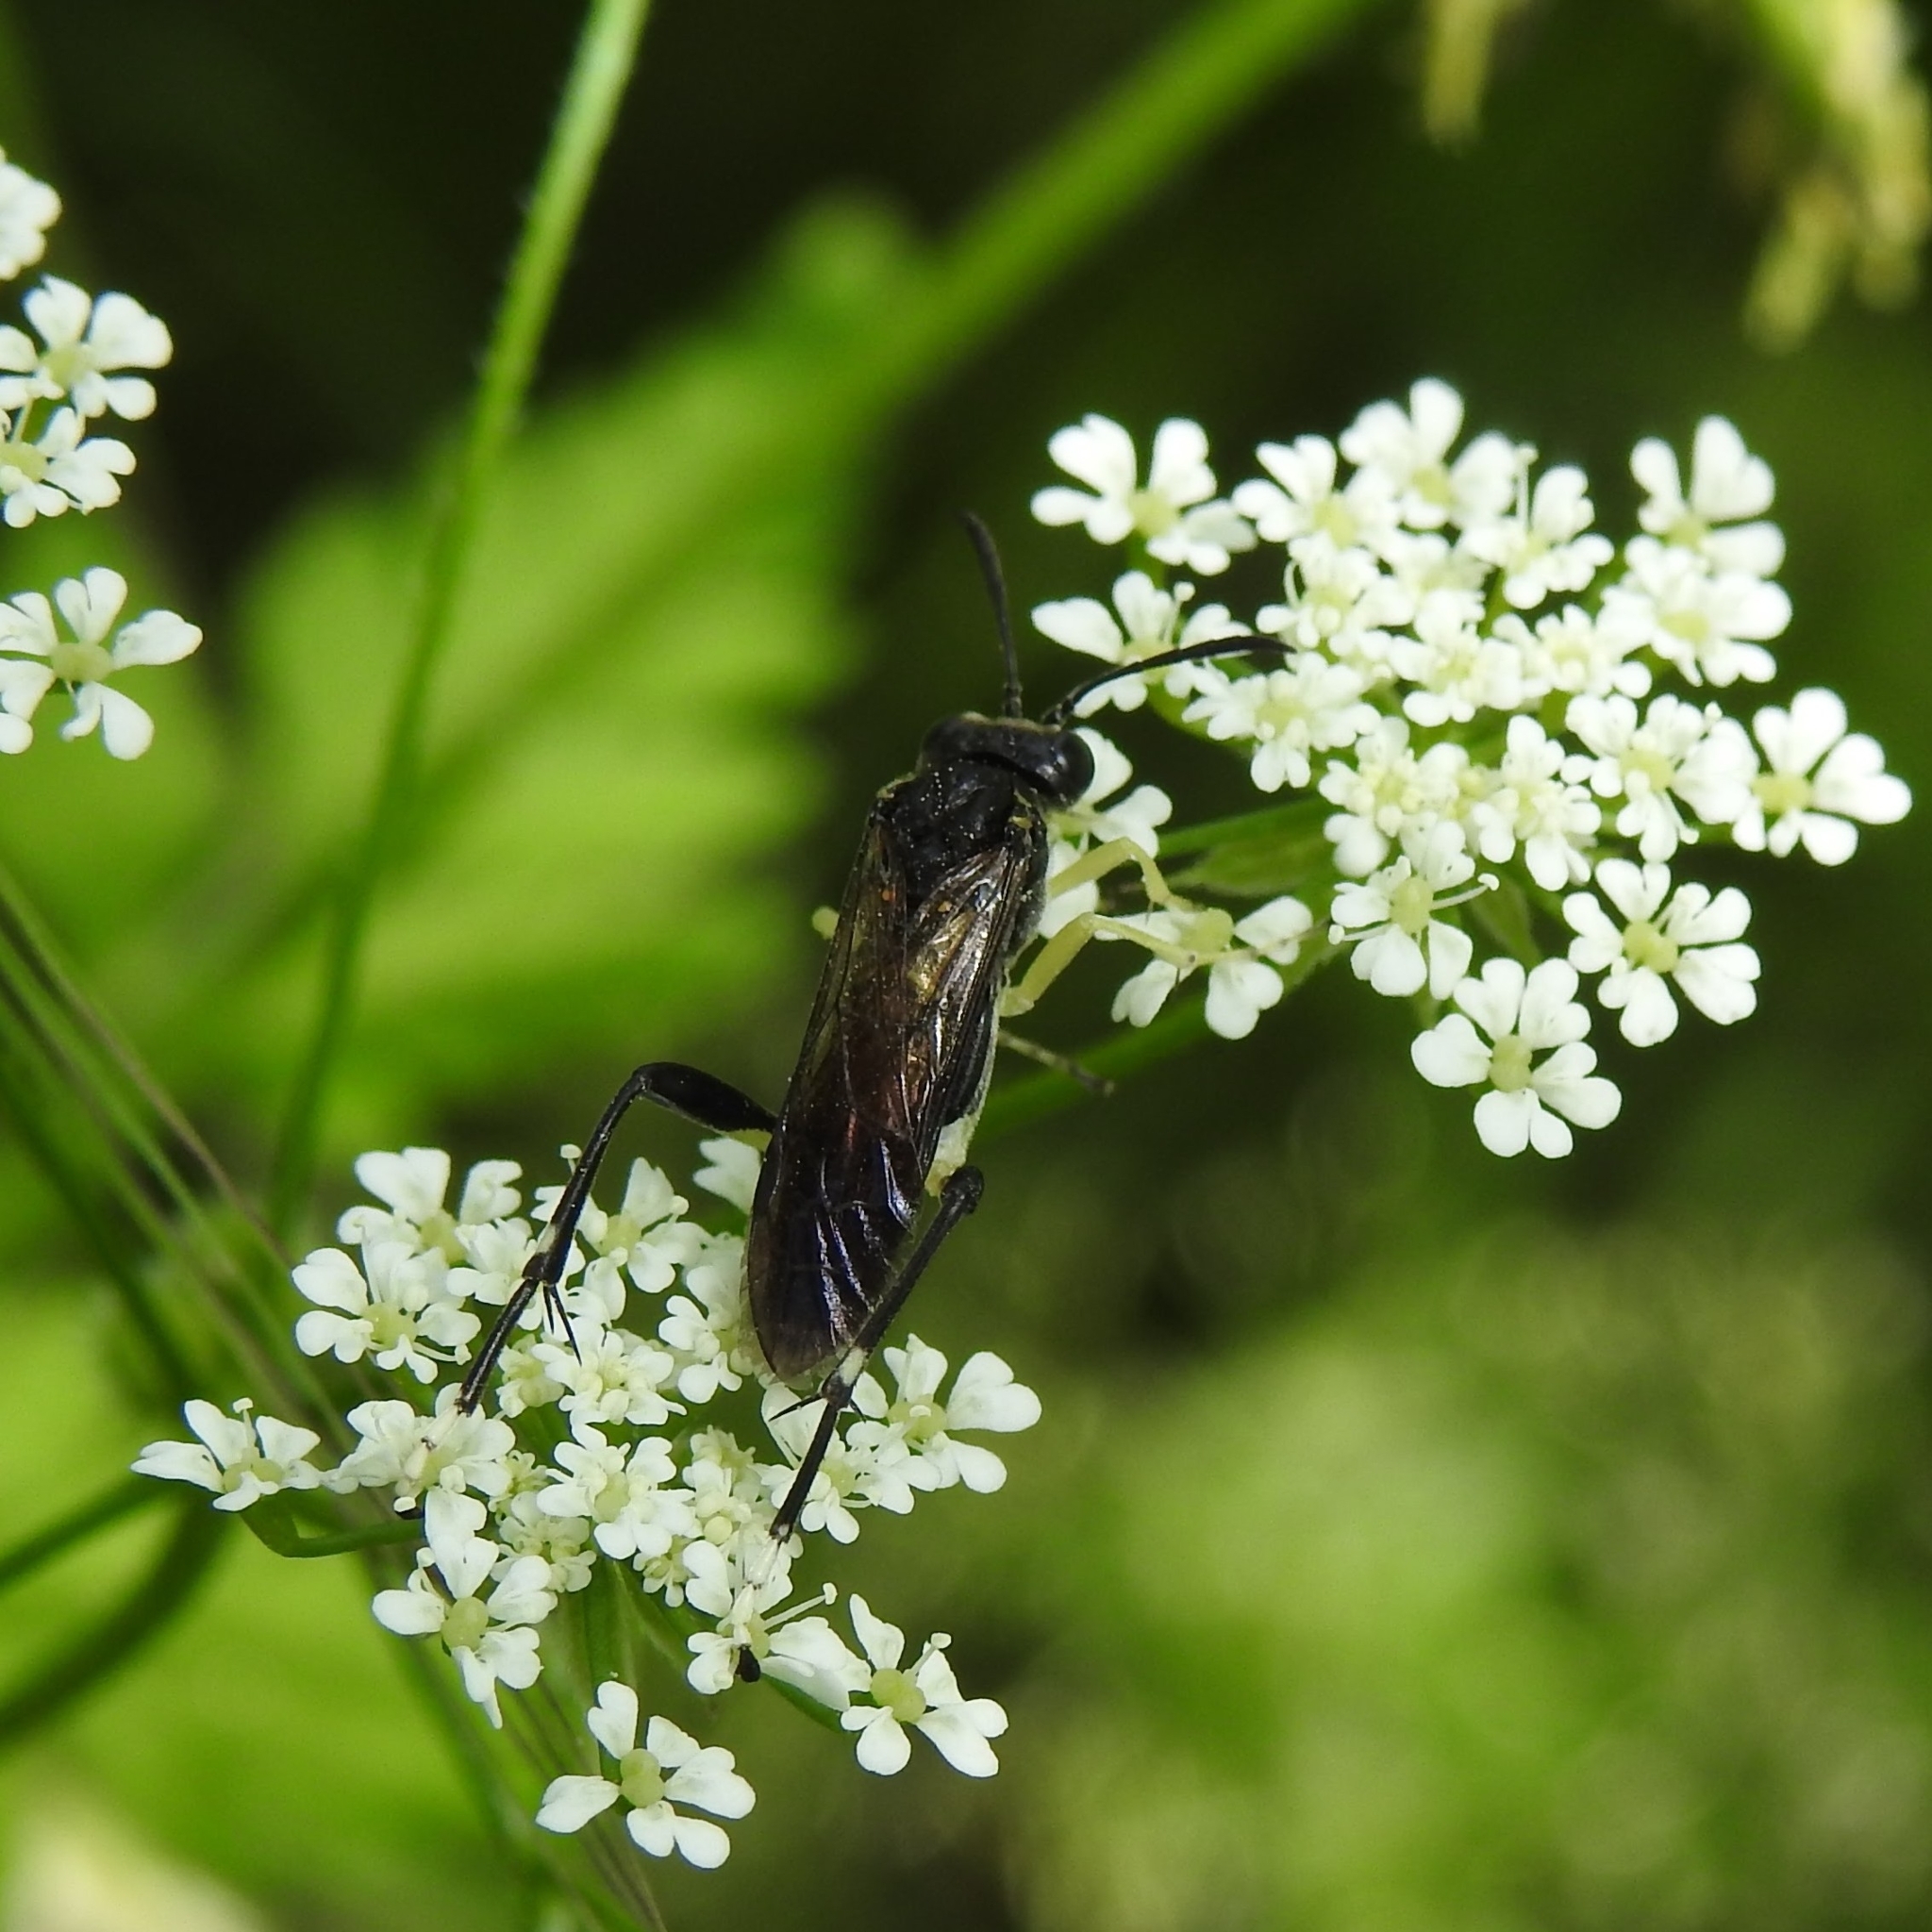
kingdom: Animalia
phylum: Arthropoda
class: Insecta
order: Hymenoptera
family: Tenthredinidae
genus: Macrophya
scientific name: Macrophya montana
